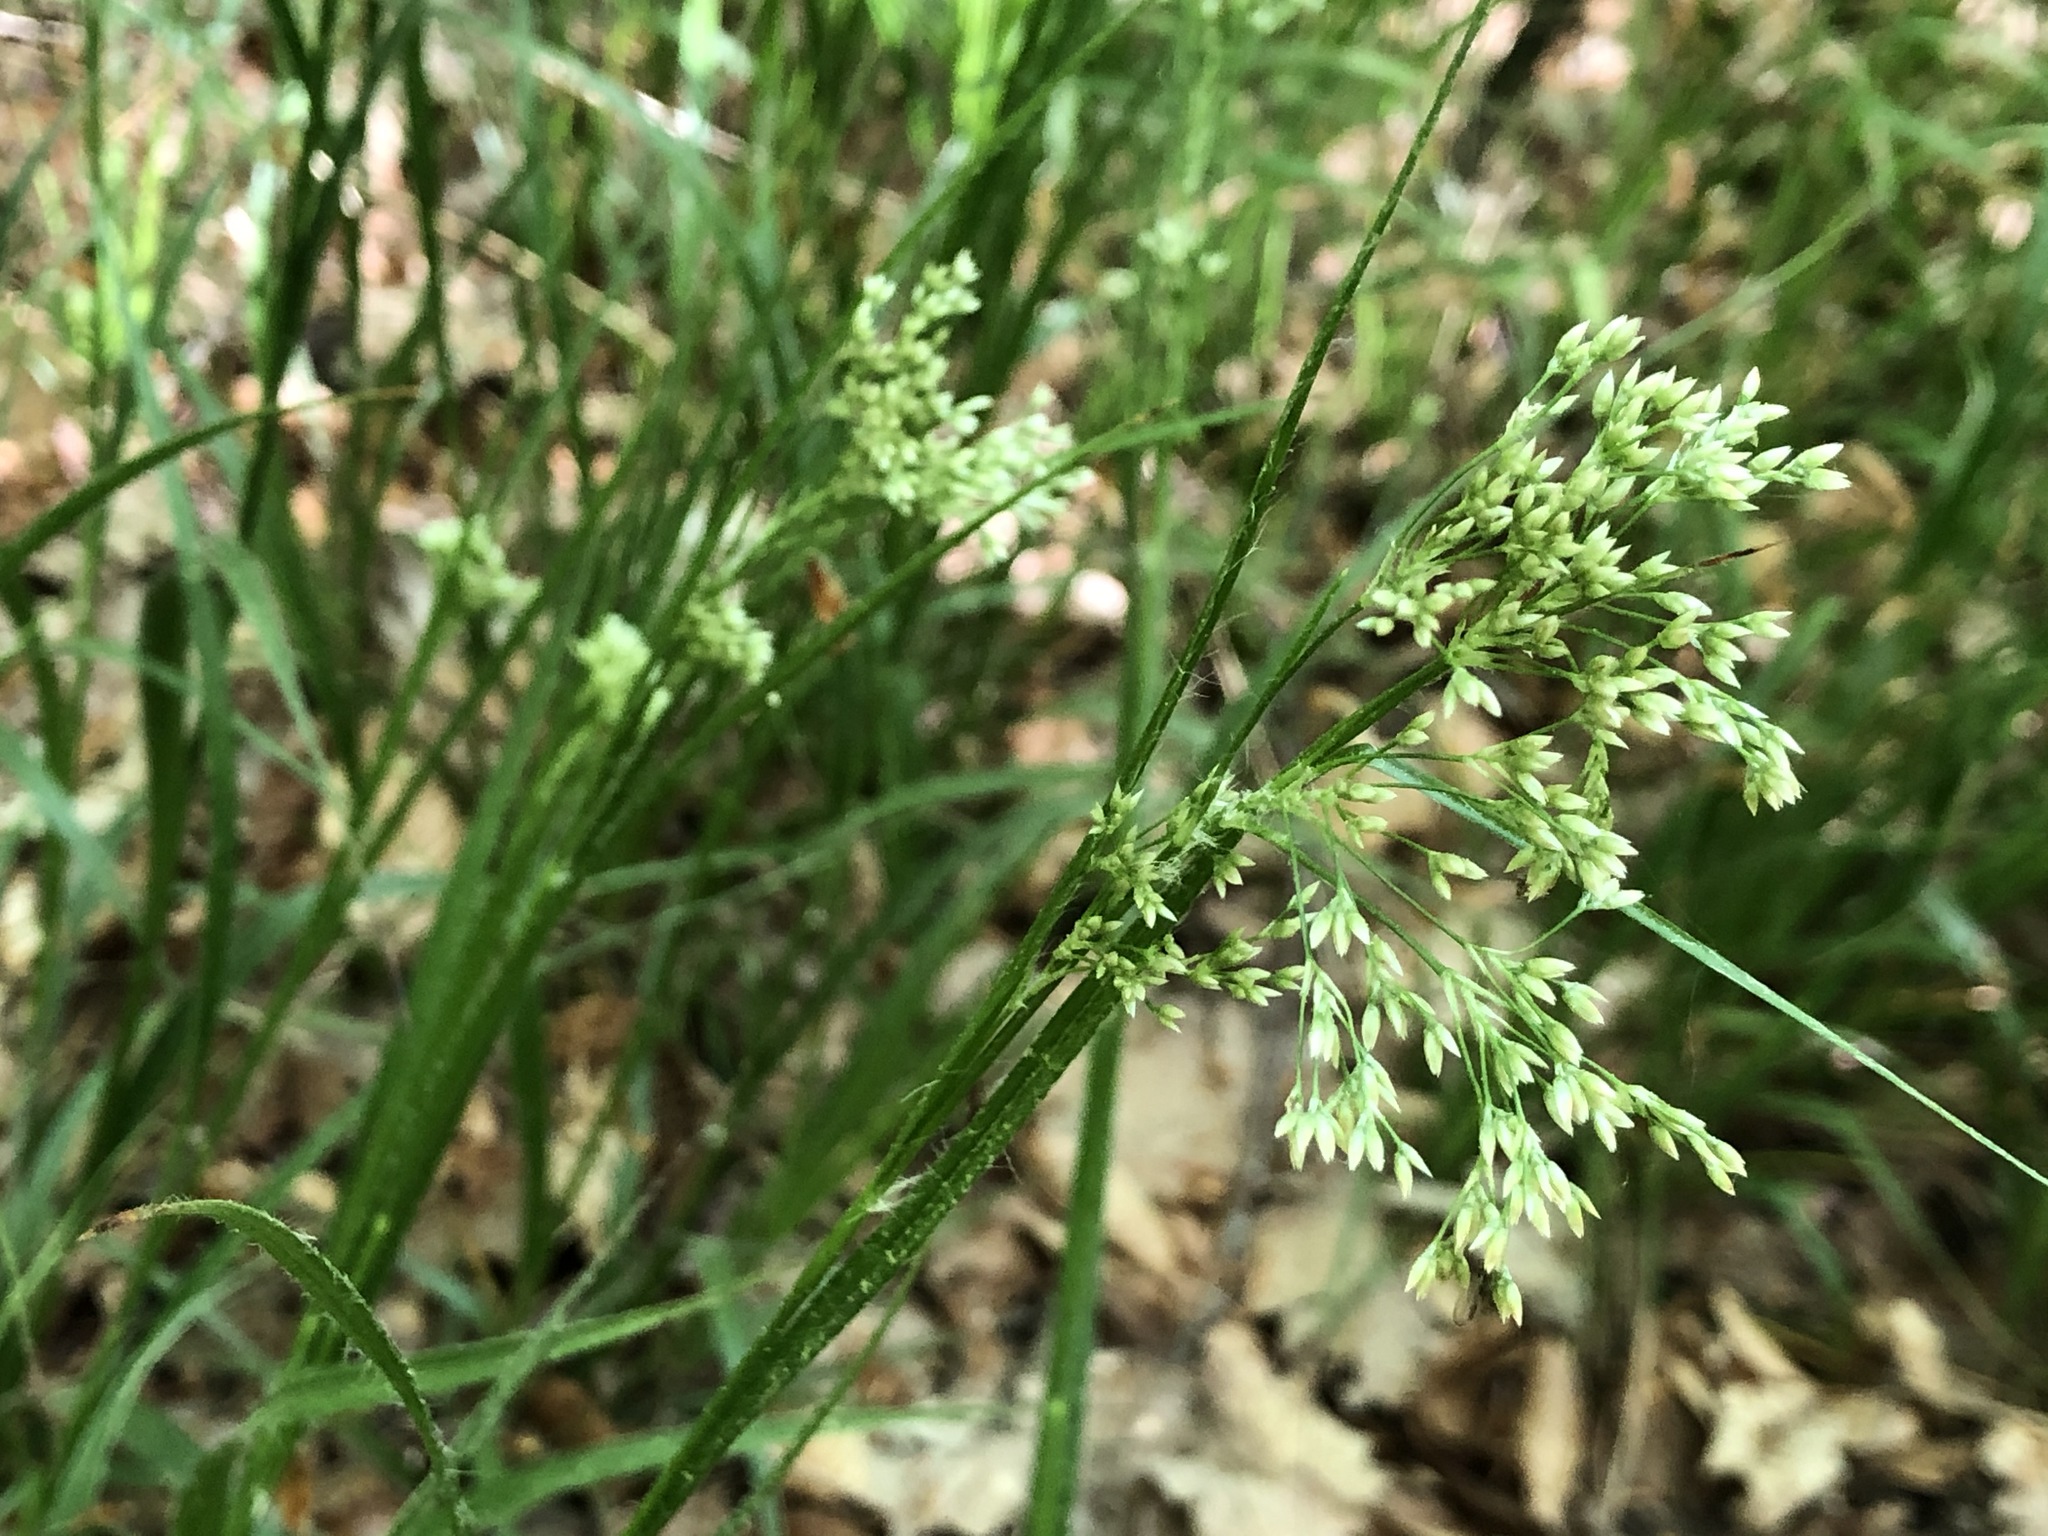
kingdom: Plantae
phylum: Tracheophyta
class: Liliopsida
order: Poales
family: Juncaceae
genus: Luzula
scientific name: Luzula luzuloides
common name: White wood-rush
